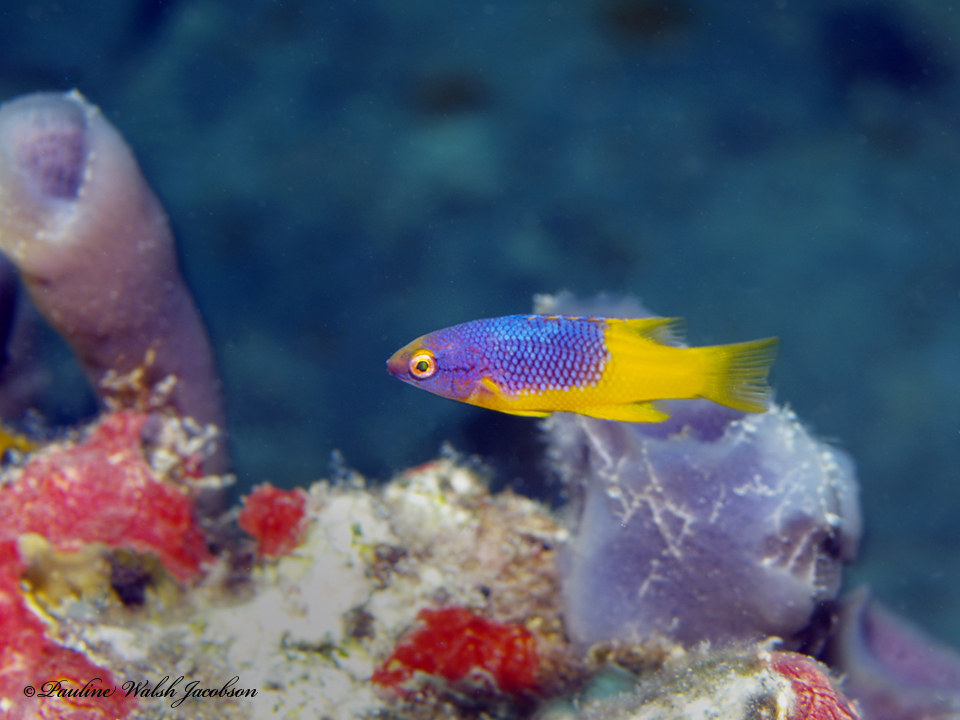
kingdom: Animalia
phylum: Chordata
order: Perciformes
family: Labridae
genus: Bodianus
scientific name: Bodianus rufus
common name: Spanish hogfish
